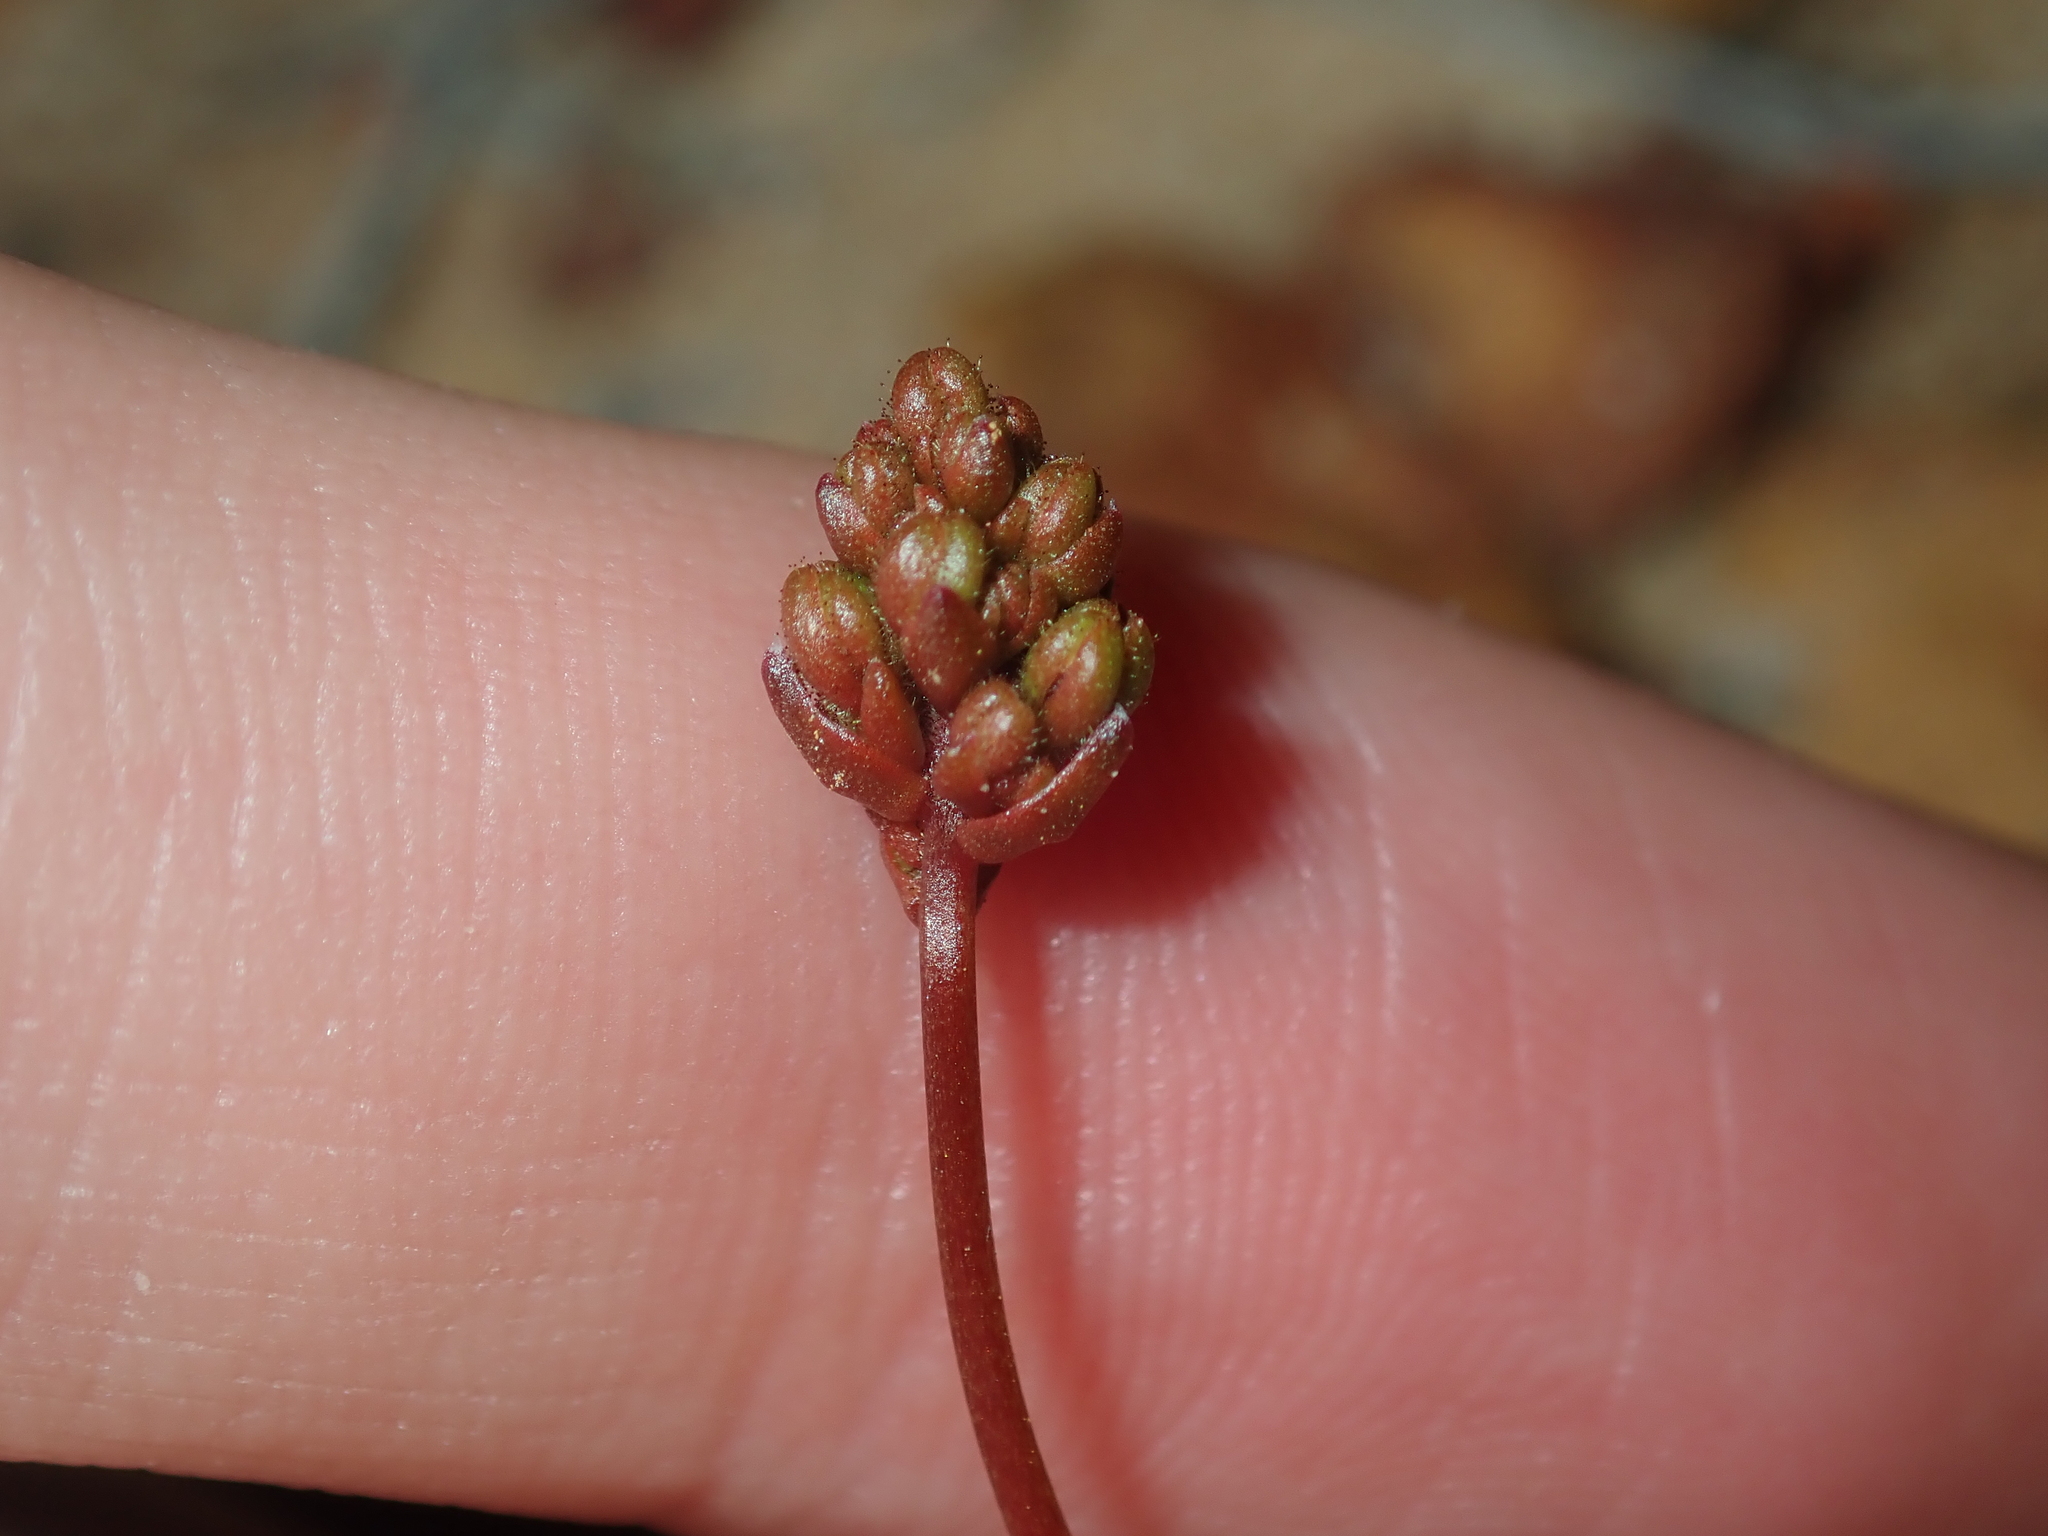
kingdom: Plantae
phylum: Tracheophyta
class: Magnoliopsida
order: Asterales
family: Stylidiaceae
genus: Stylidium
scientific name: Stylidium kalbarriense
